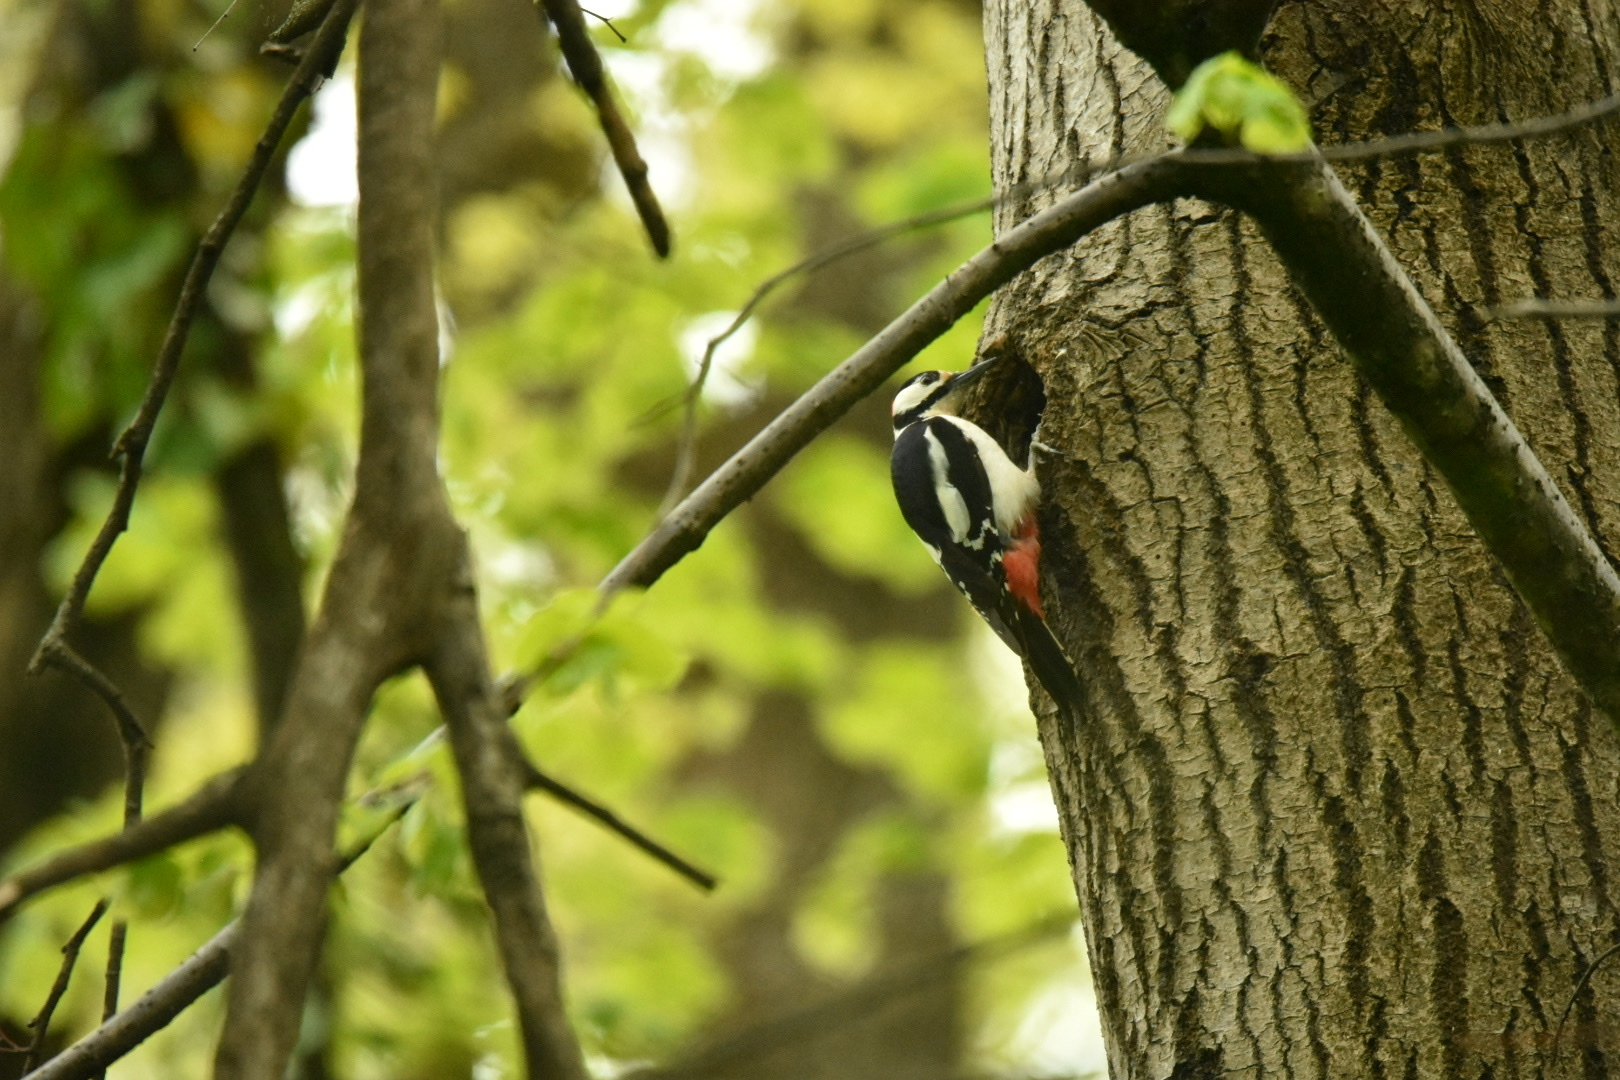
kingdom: Animalia
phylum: Chordata
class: Aves
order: Piciformes
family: Picidae
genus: Dendrocopos
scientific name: Dendrocopos major
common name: Great spotted woodpecker
